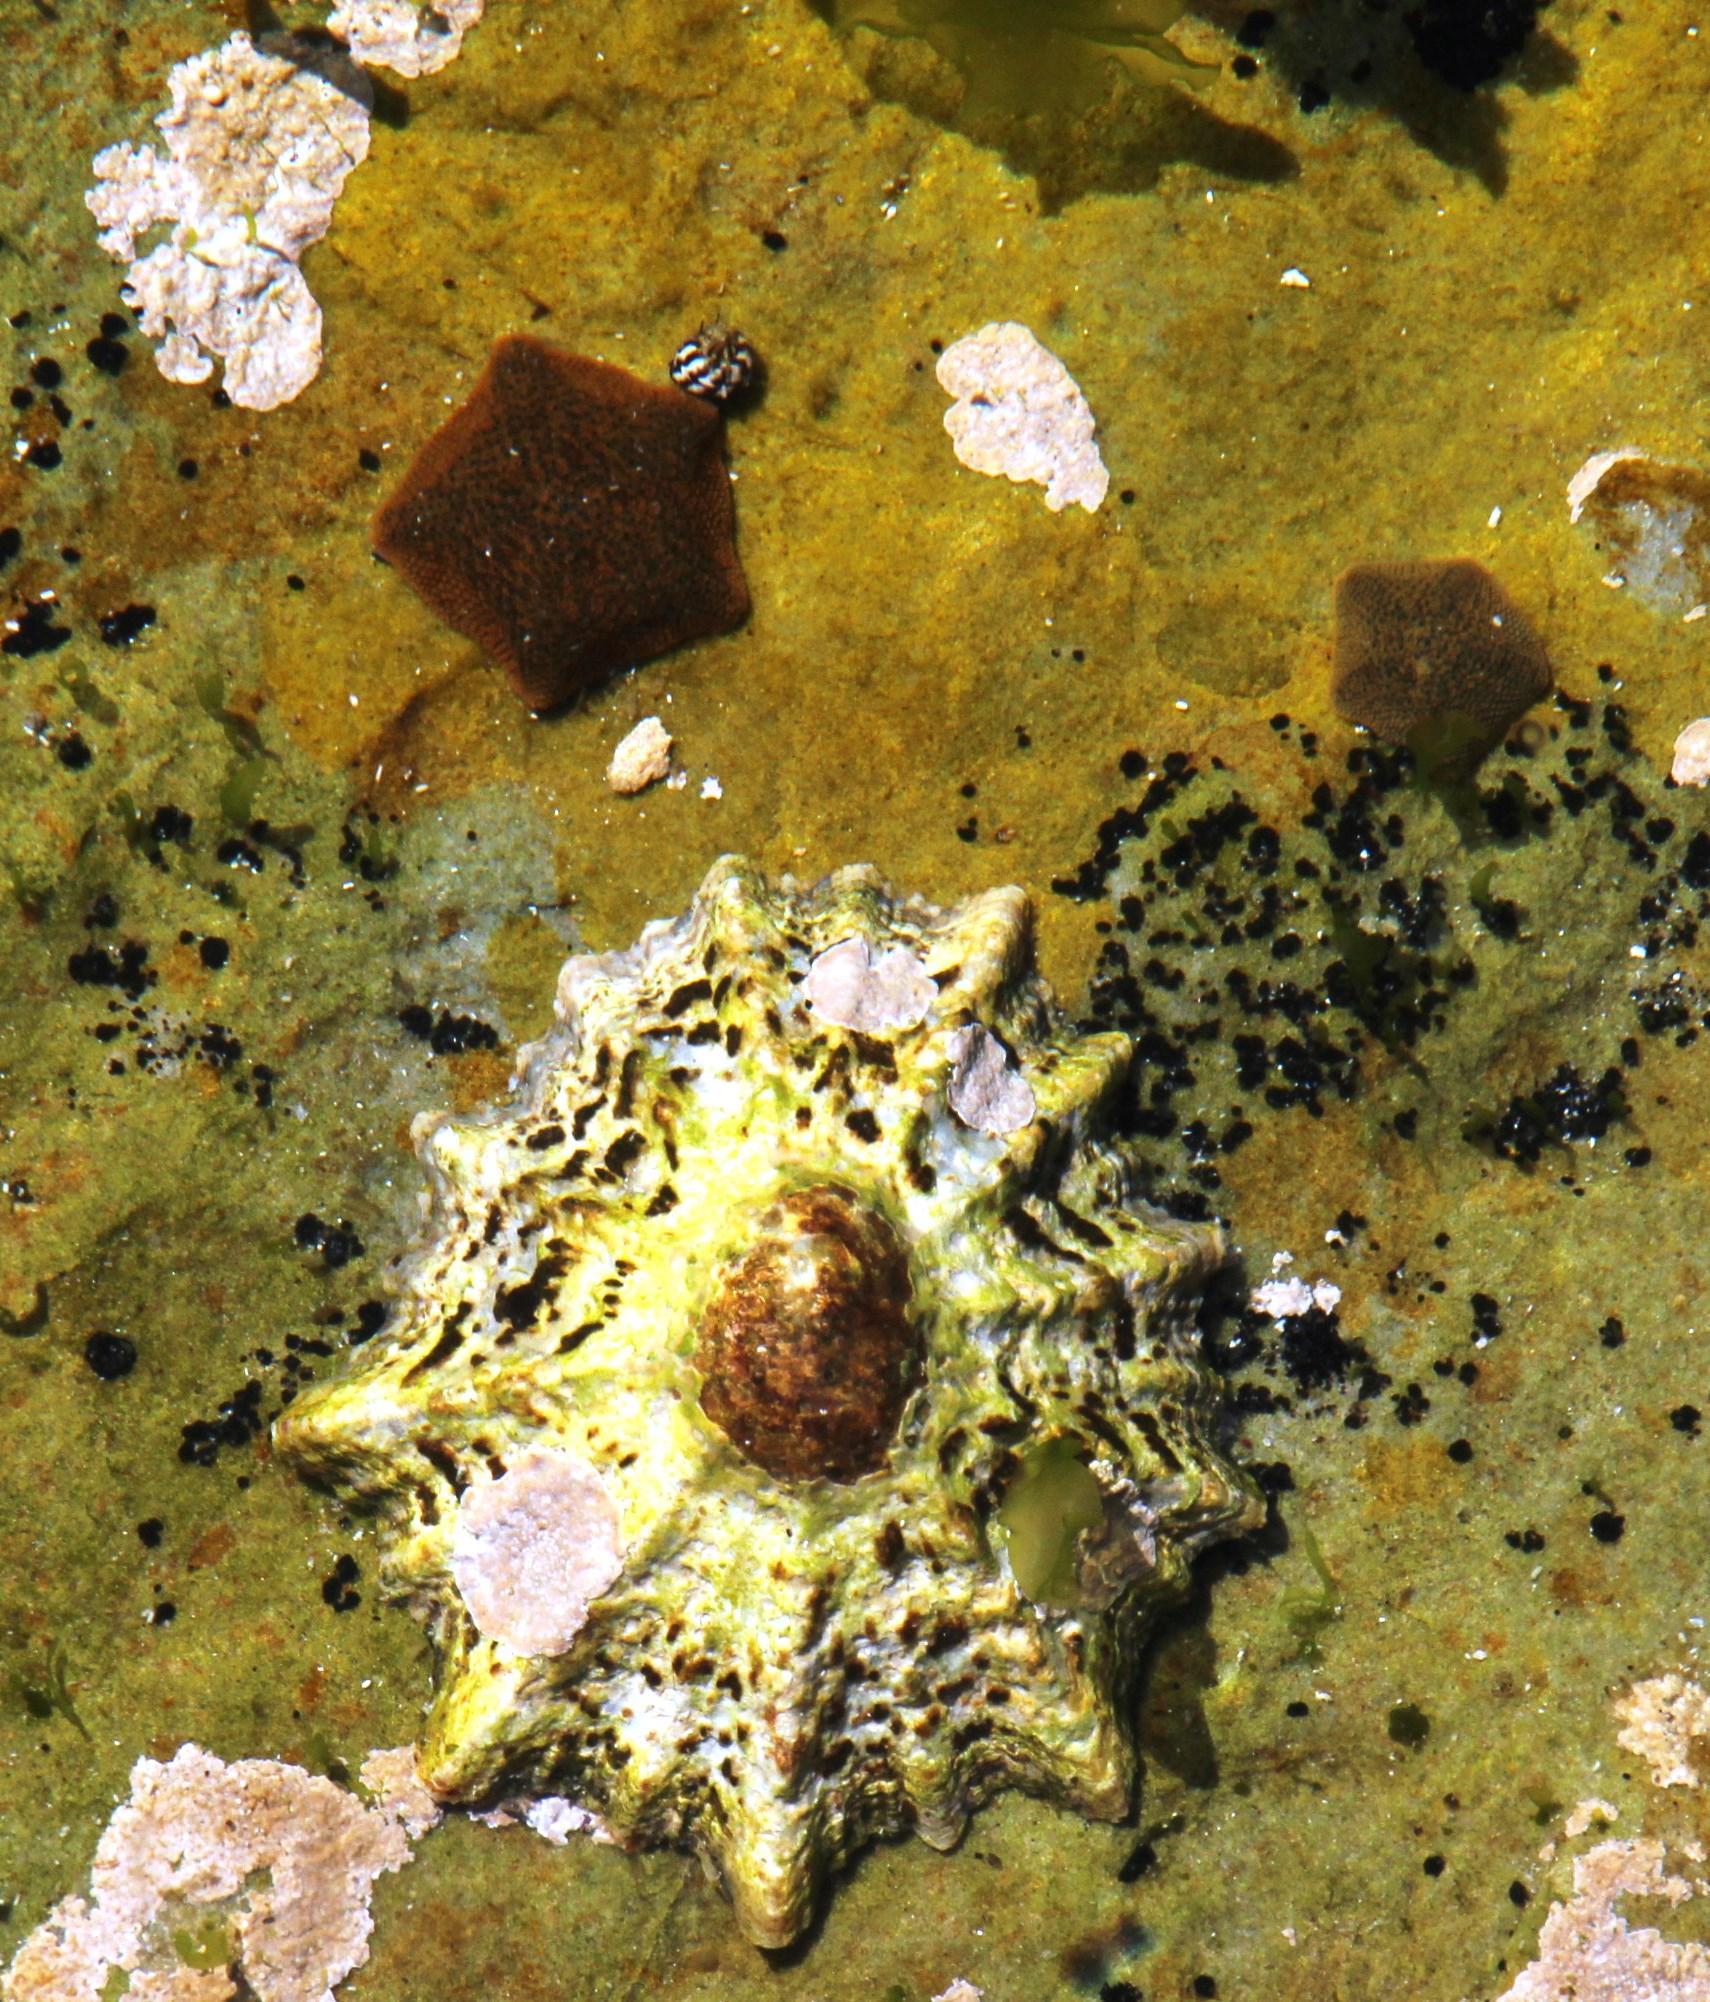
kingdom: Animalia
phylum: Mollusca
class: Gastropoda
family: Patellidae
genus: Cymbula
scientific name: Cymbula granatina
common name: Granite limpet
